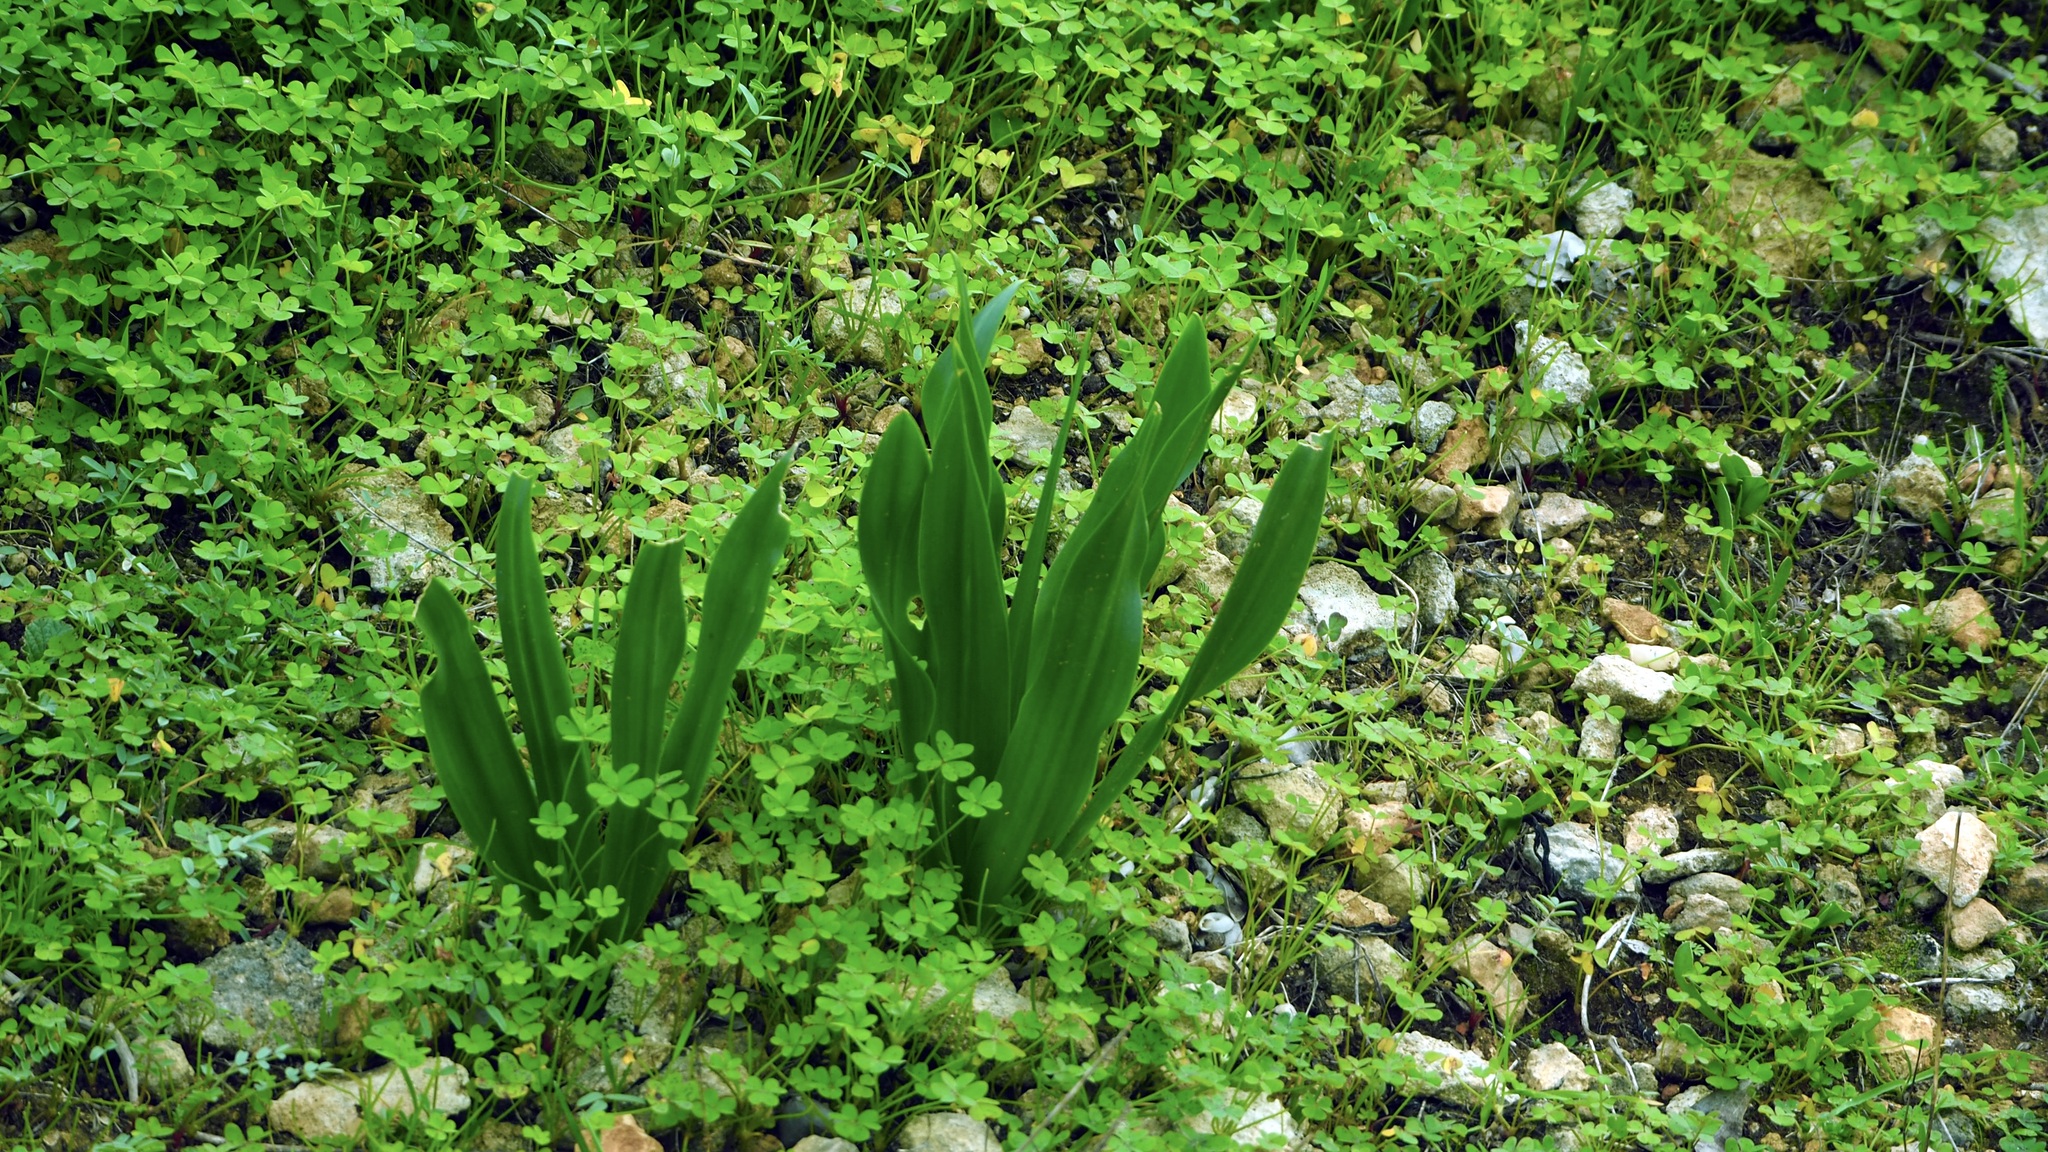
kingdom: Plantae
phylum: Tracheophyta
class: Liliopsida
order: Asparagales
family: Asparagaceae
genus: Drimia
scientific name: Drimia maritima
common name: Maritime squill
